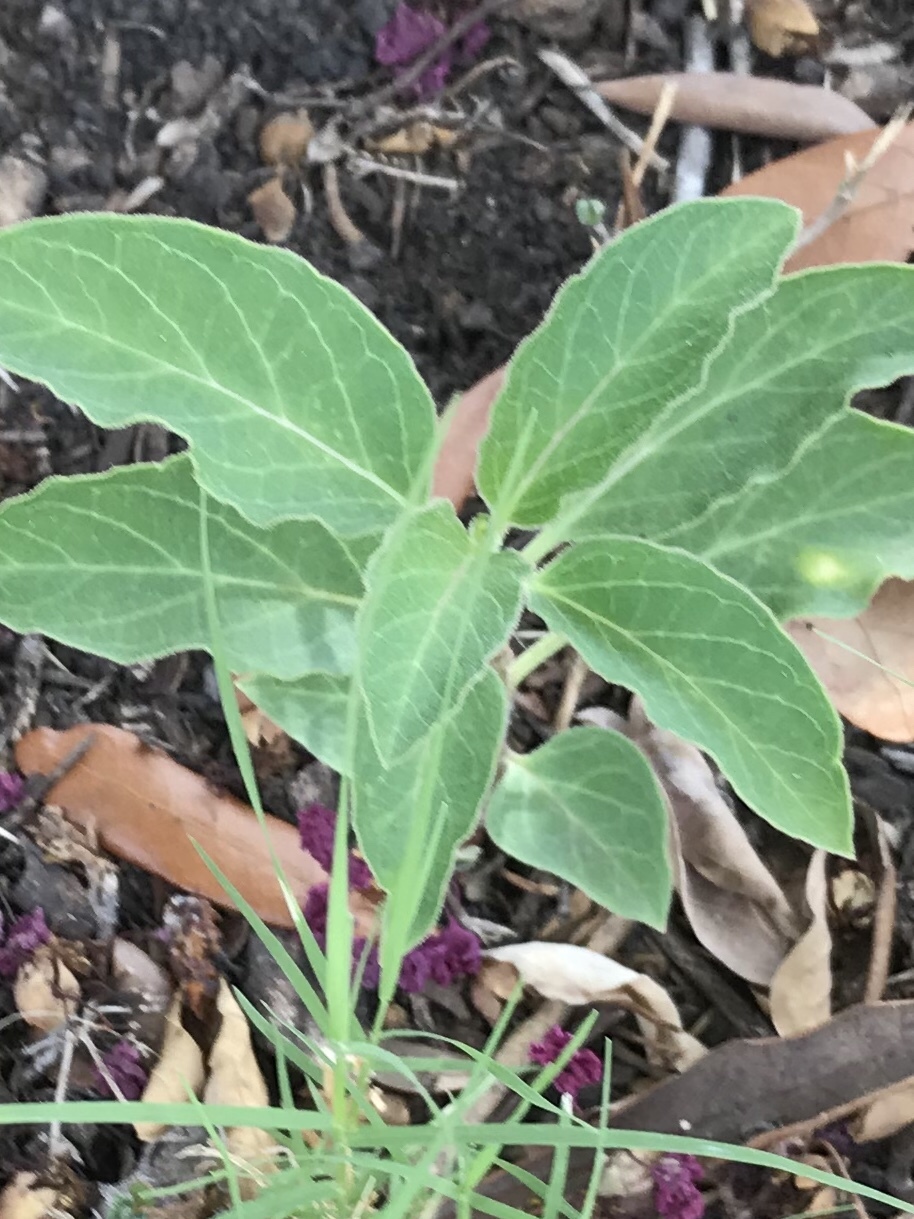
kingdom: Plantae
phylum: Tracheophyta
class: Magnoliopsida
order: Gentianales
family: Apocynaceae
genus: Asclepias
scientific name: Asclepias oenotheroides
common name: Zizotes milkweed
